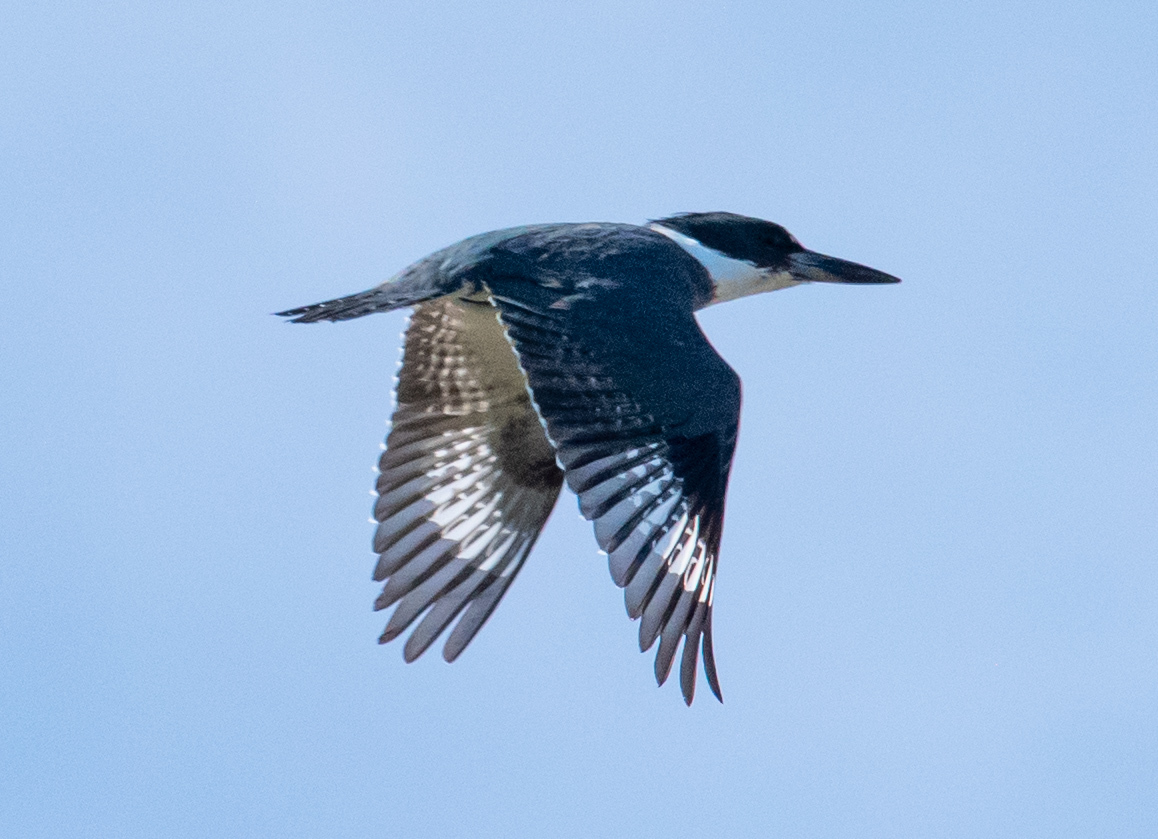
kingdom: Animalia
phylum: Chordata
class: Aves
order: Coraciiformes
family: Alcedinidae
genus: Megaceryle
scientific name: Megaceryle alcyon
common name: Belted kingfisher
